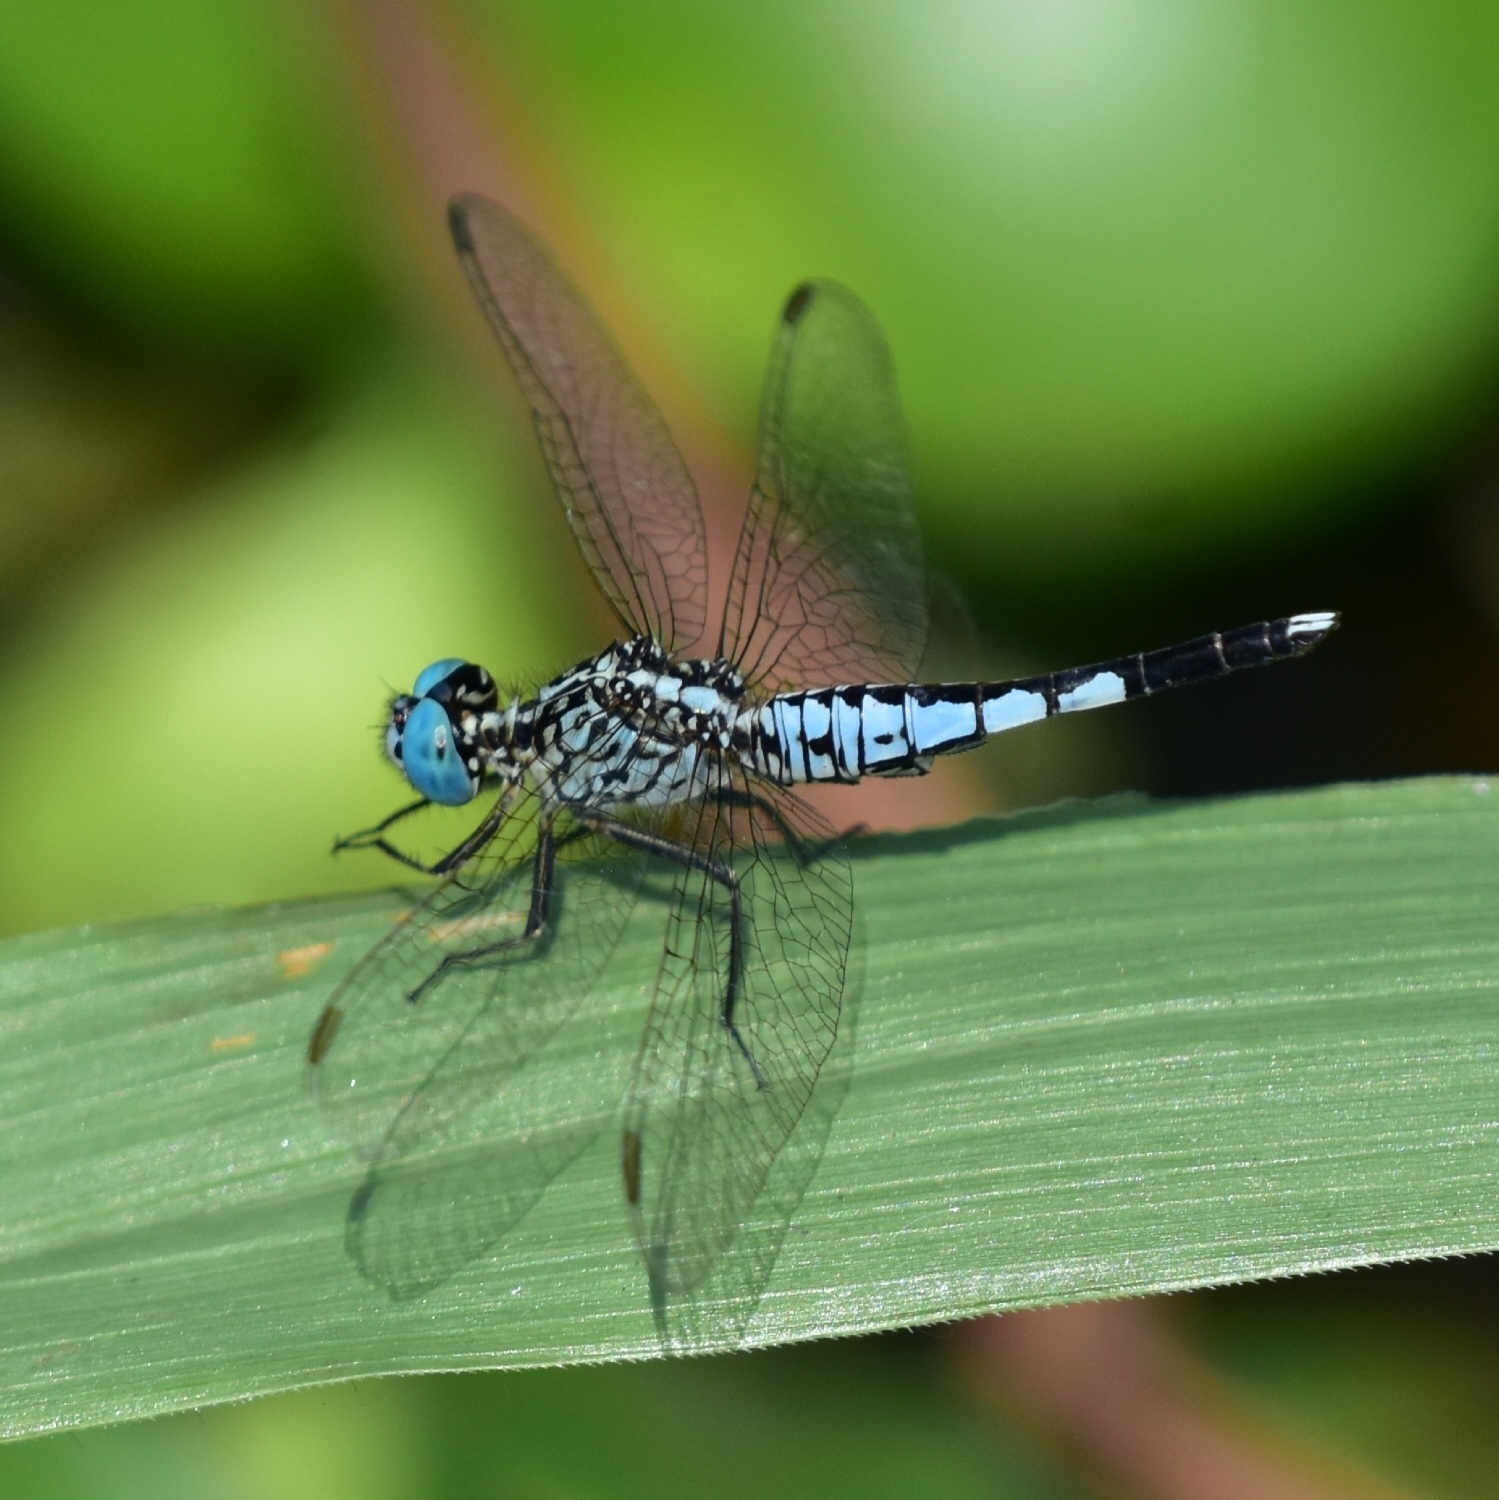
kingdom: Animalia
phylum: Arthropoda
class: Insecta
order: Odonata
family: Libellulidae
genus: Acisoma
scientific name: Acisoma panorpoides
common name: Asian pintail
